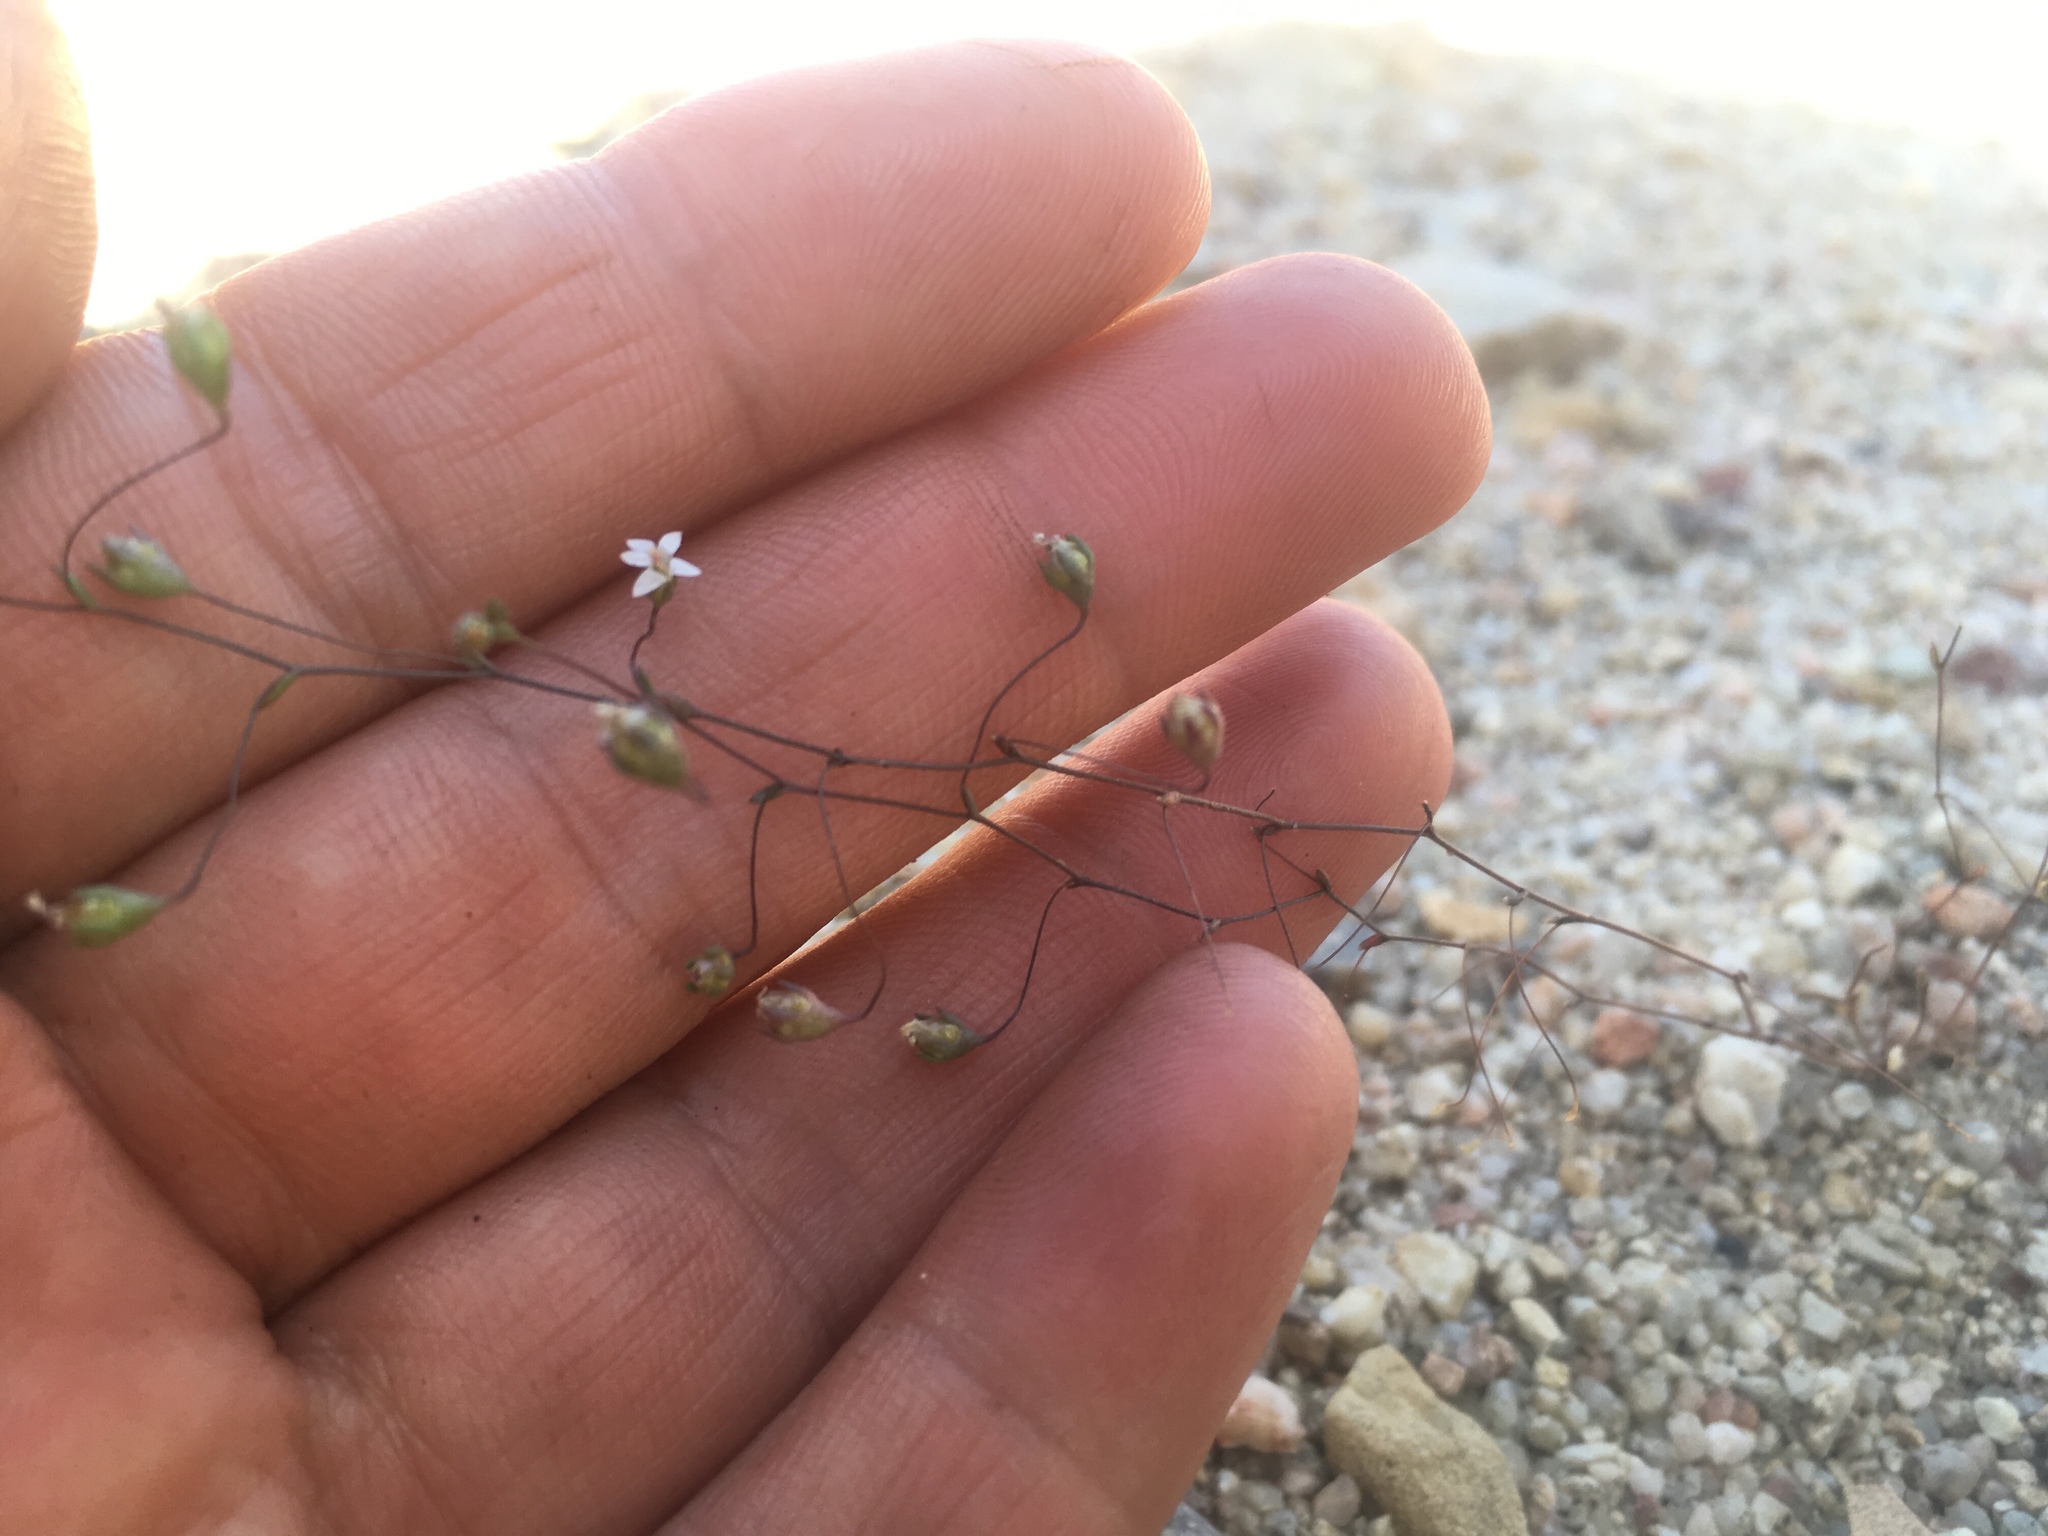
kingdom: Plantae
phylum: Tracheophyta
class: Magnoliopsida
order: Asterales
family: Campanulaceae
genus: Nemacladus
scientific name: Nemacladus secundiflorus
